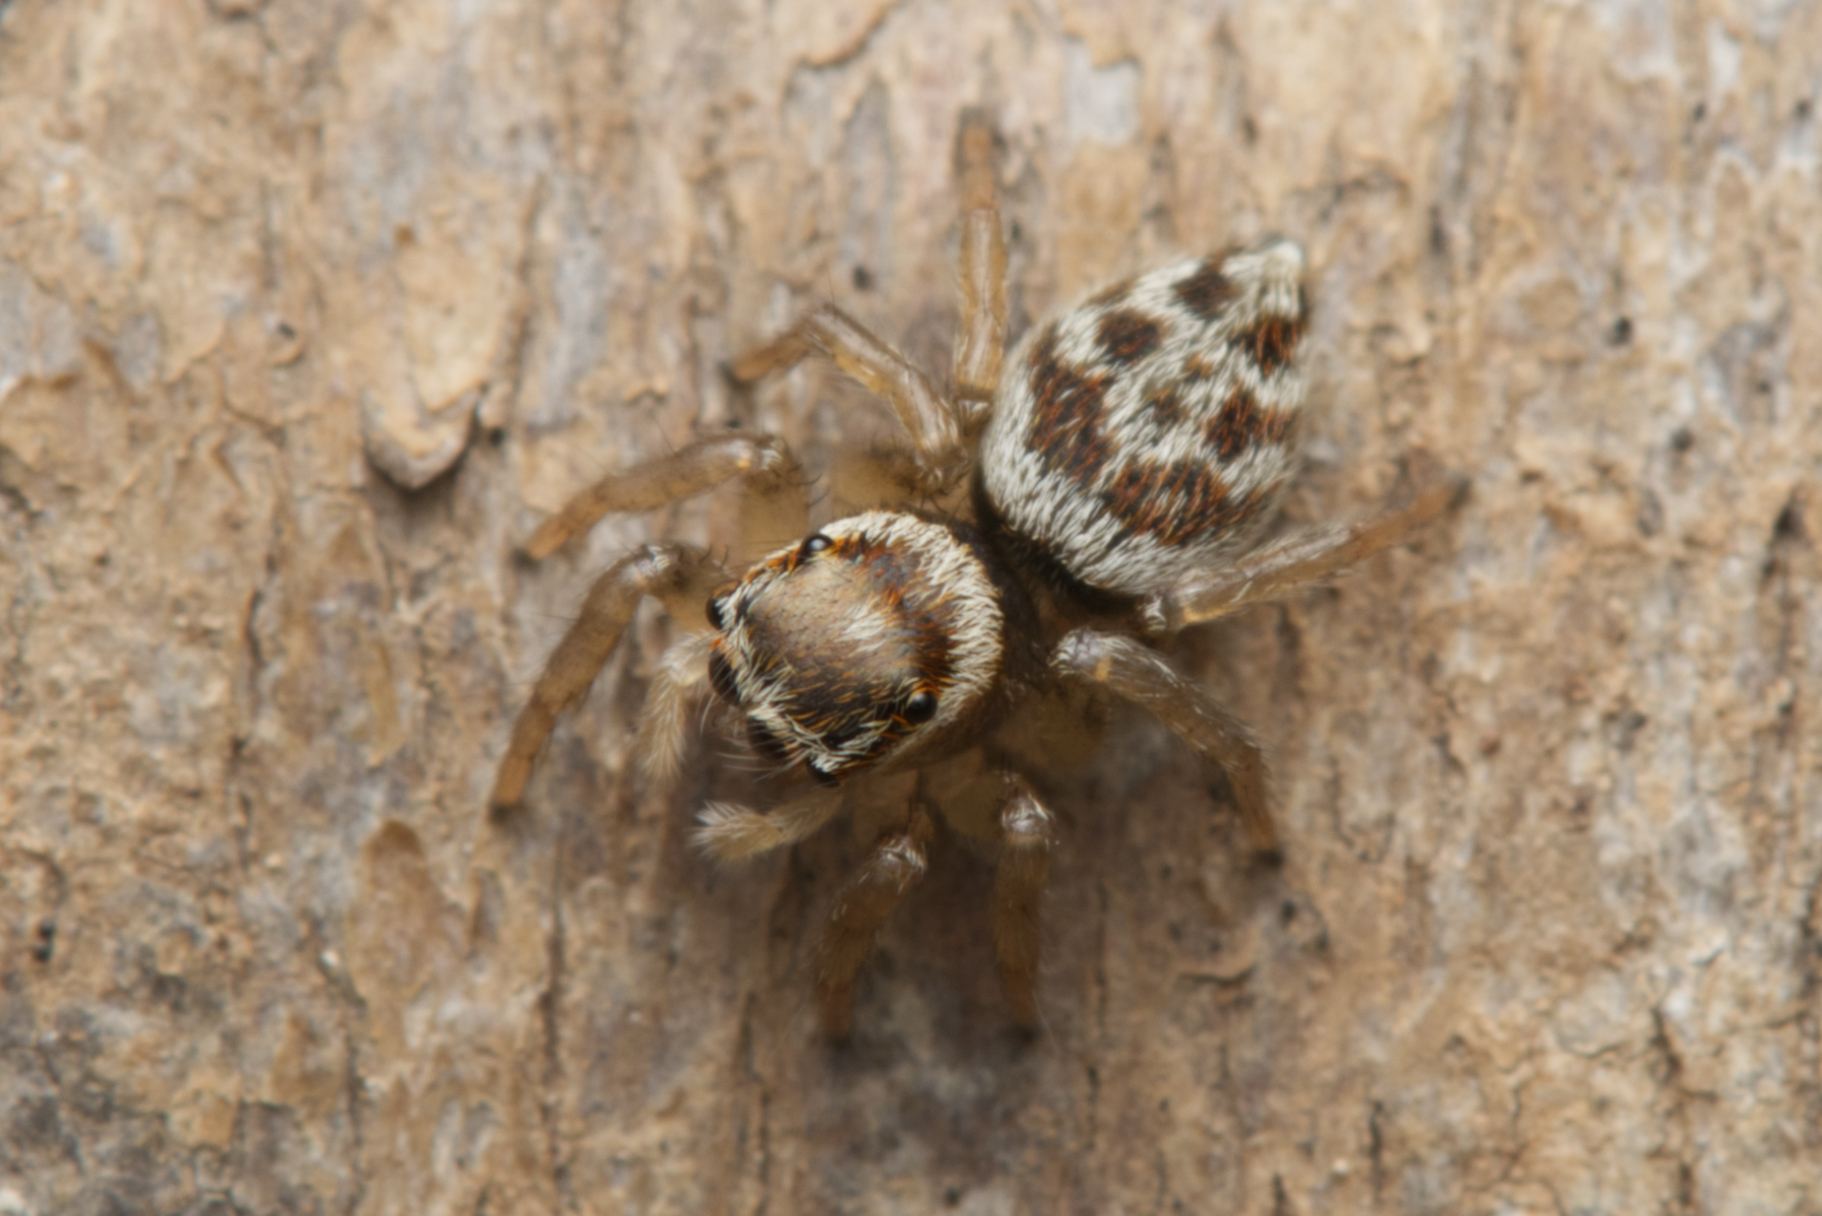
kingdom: Animalia
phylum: Arthropoda
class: Arachnida
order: Araneae
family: Salticidae
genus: Maratus
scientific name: Maratus griseus
